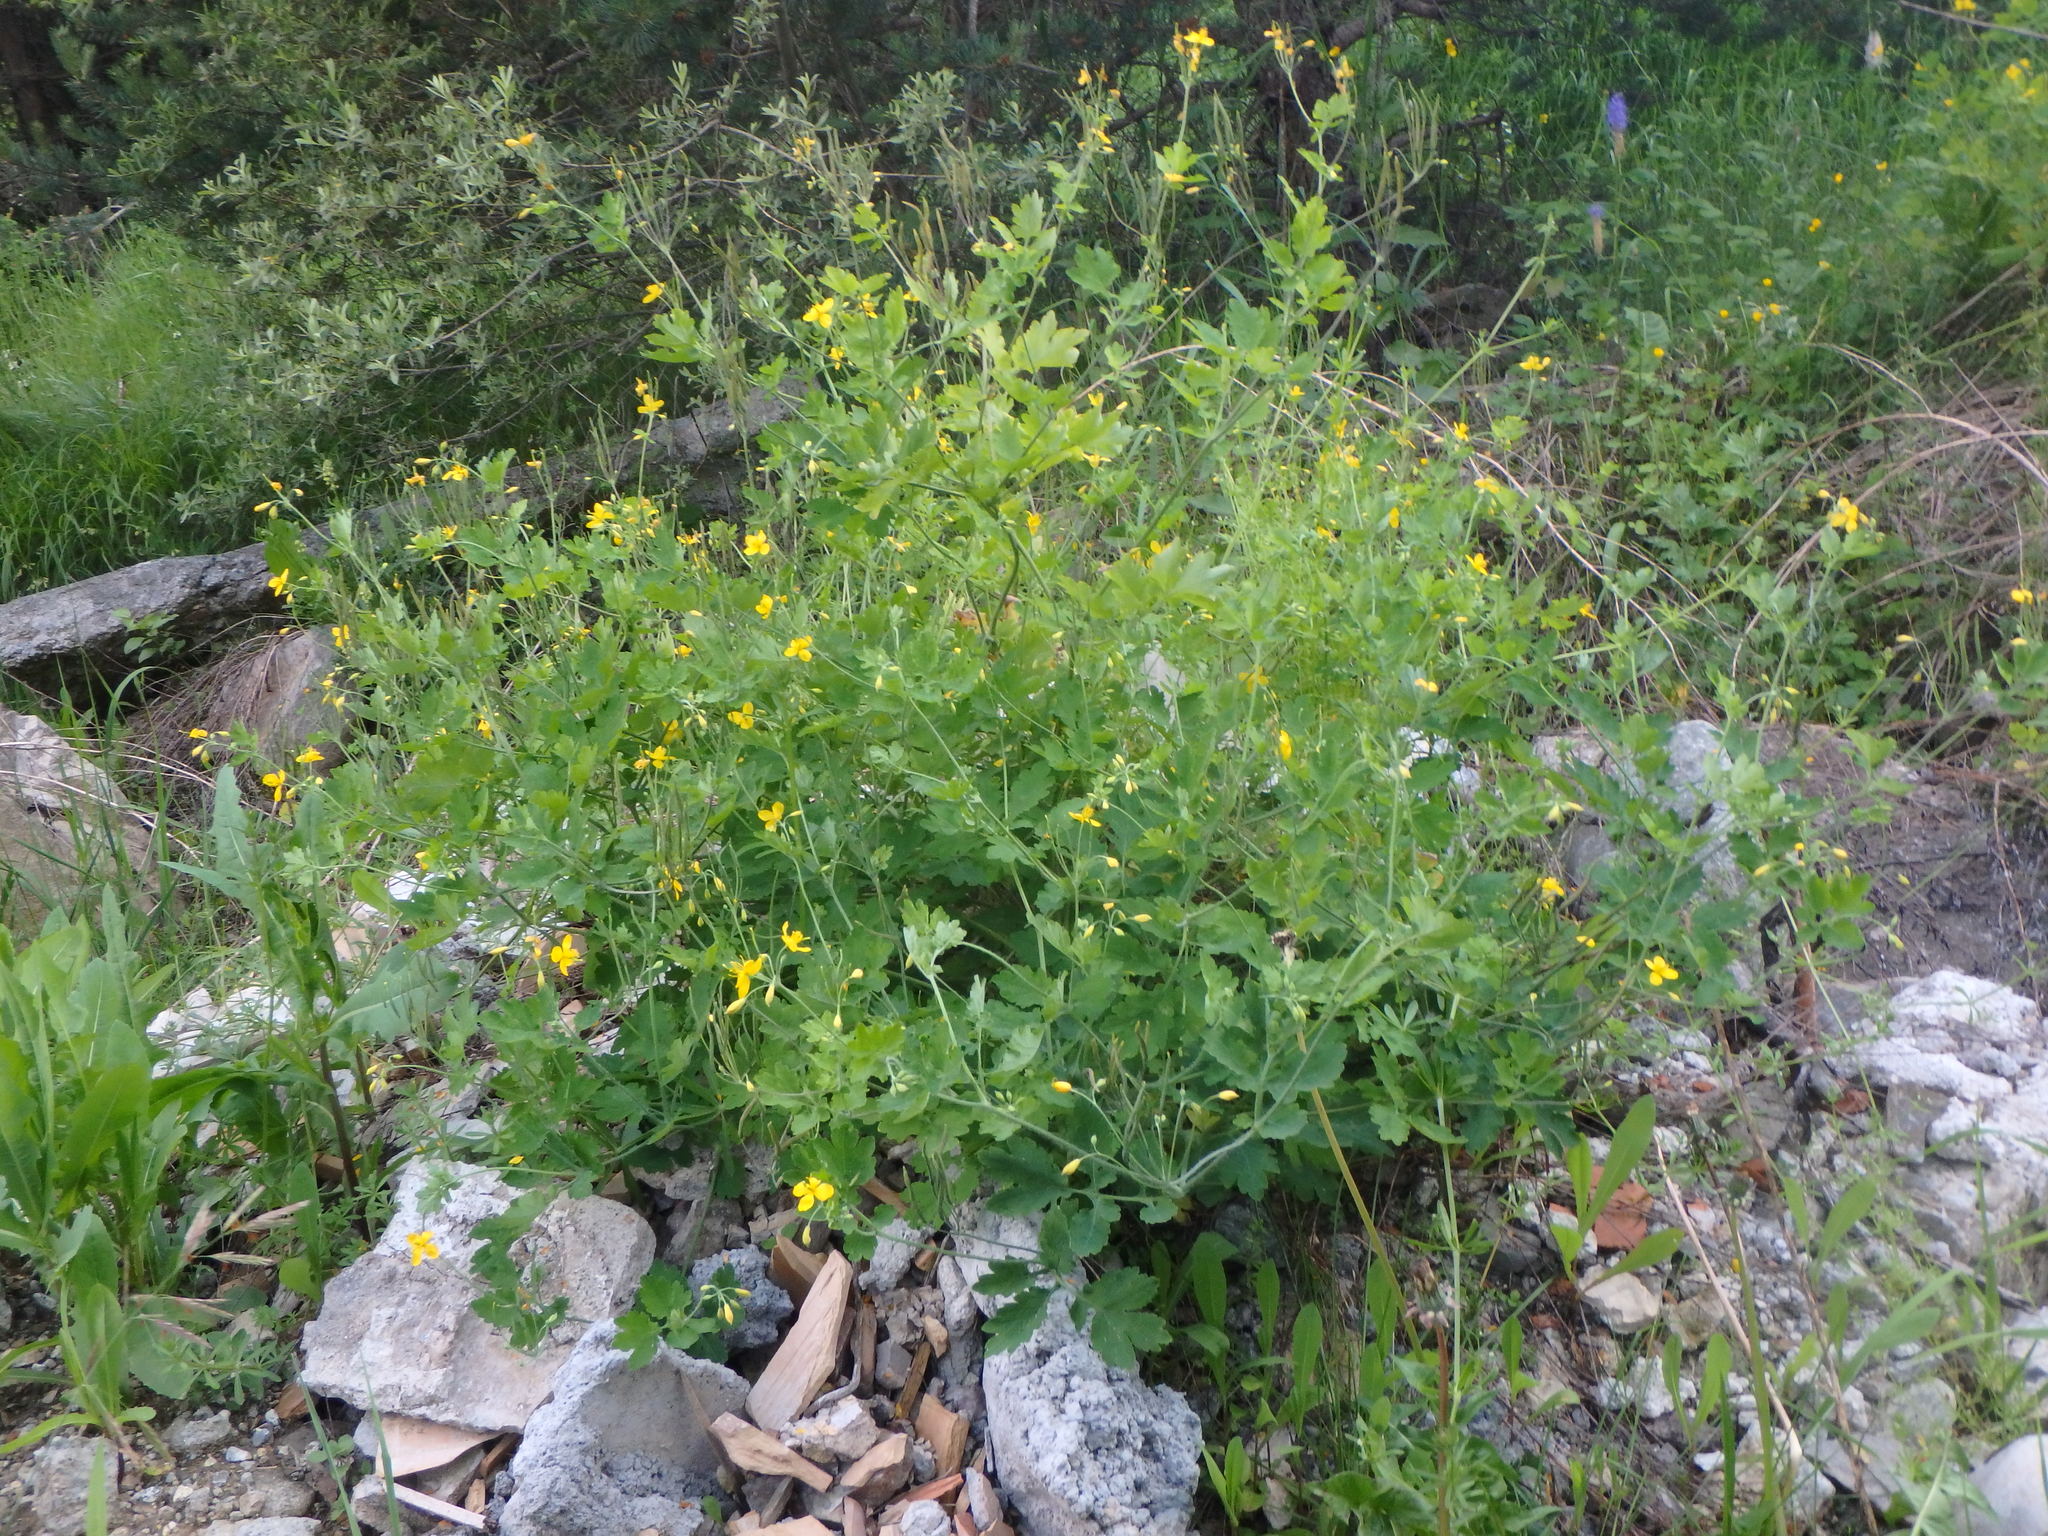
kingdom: Plantae
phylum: Tracheophyta
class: Magnoliopsida
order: Ranunculales
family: Papaveraceae
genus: Chelidonium
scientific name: Chelidonium majus
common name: Greater celandine
